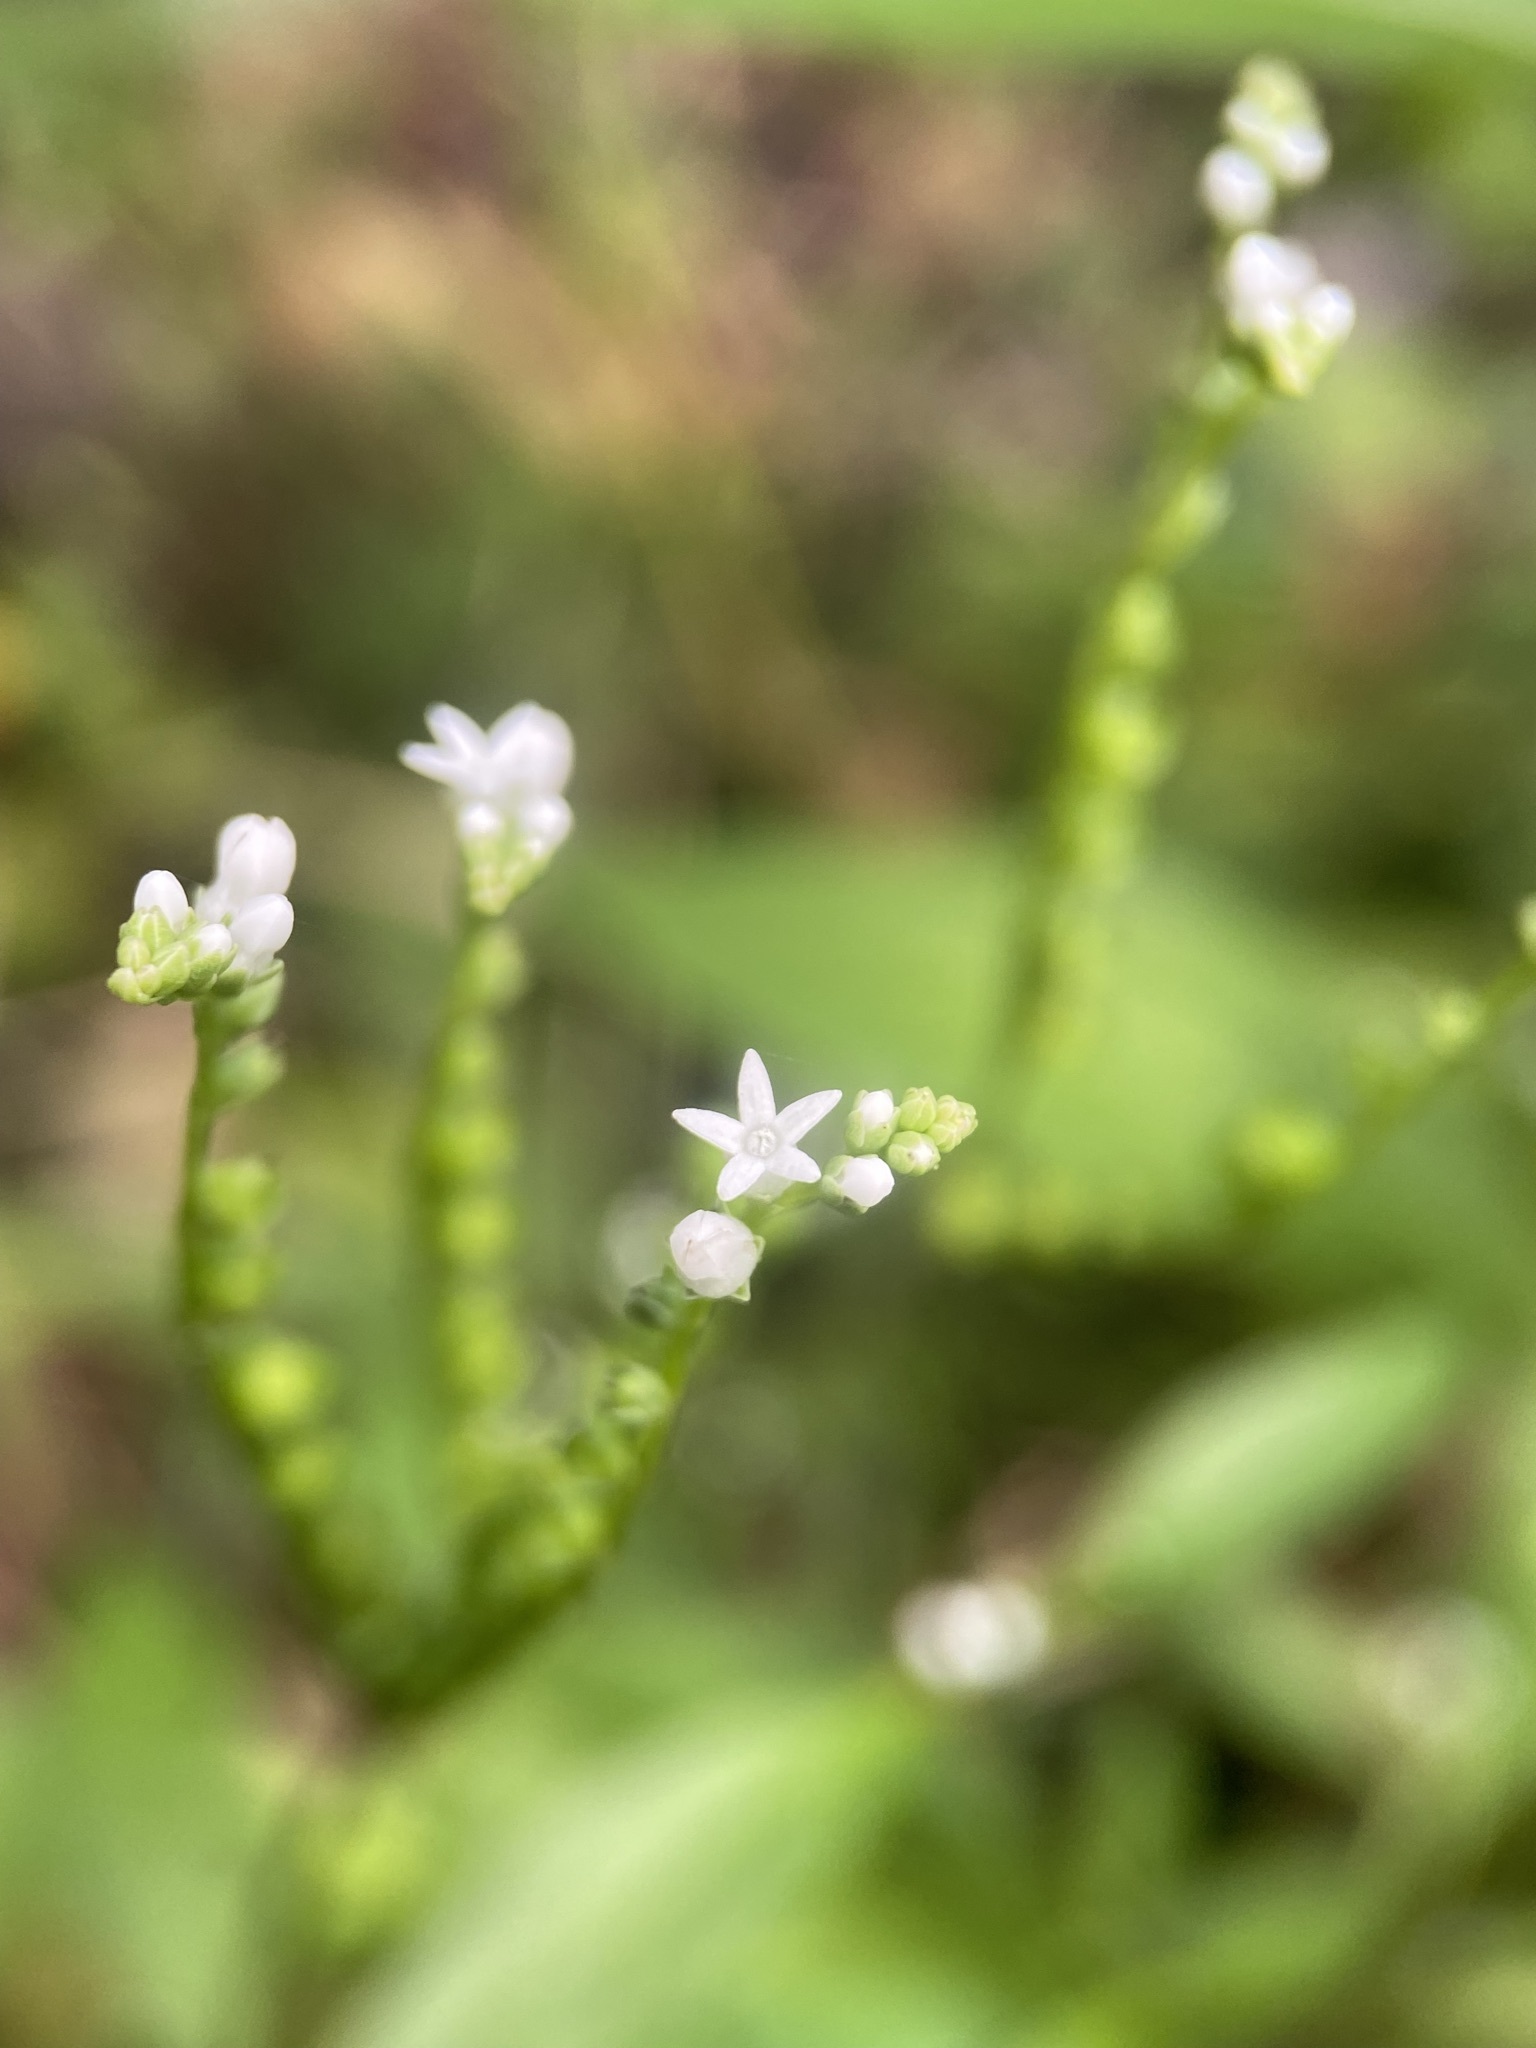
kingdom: Plantae
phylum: Tracheophyta
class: Magnoliopsida
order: Gentianales
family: Loganiaceae
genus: Mitreola
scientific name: Mitreola petiolata
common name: Lax hornpod
